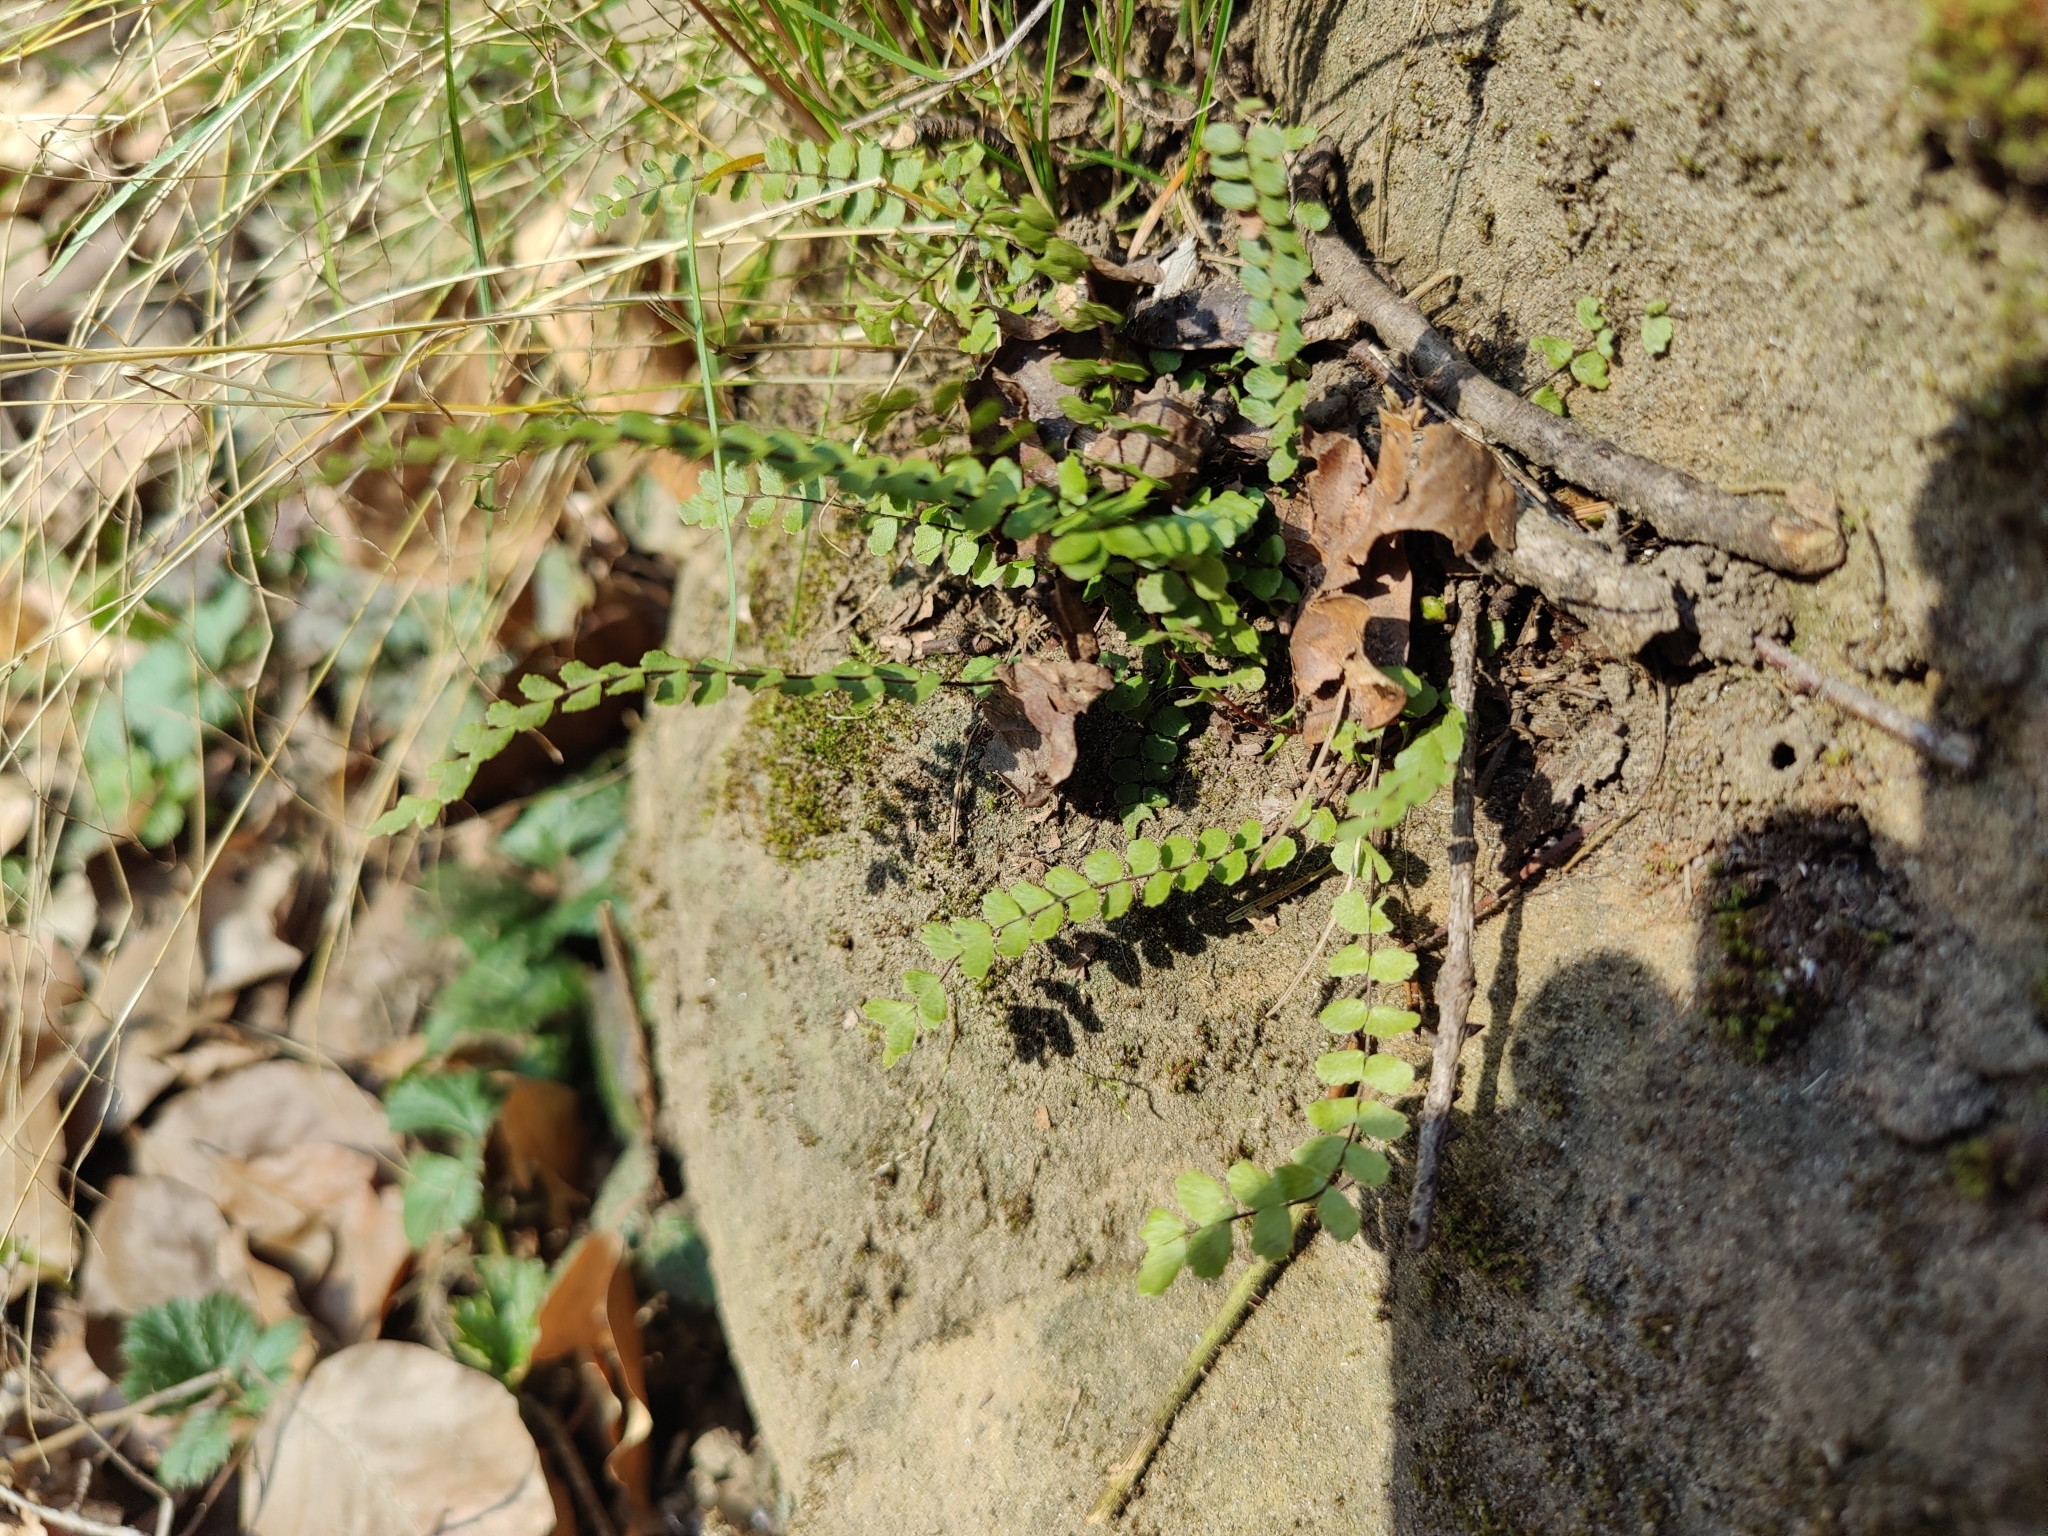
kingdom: Plantae
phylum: Tracheophyta
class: Polypodiopsida
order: Polypodiales
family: Aspleniaceae
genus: Asplenium
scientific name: Asplenium trichomanes
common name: Maidenhair spleenwort
